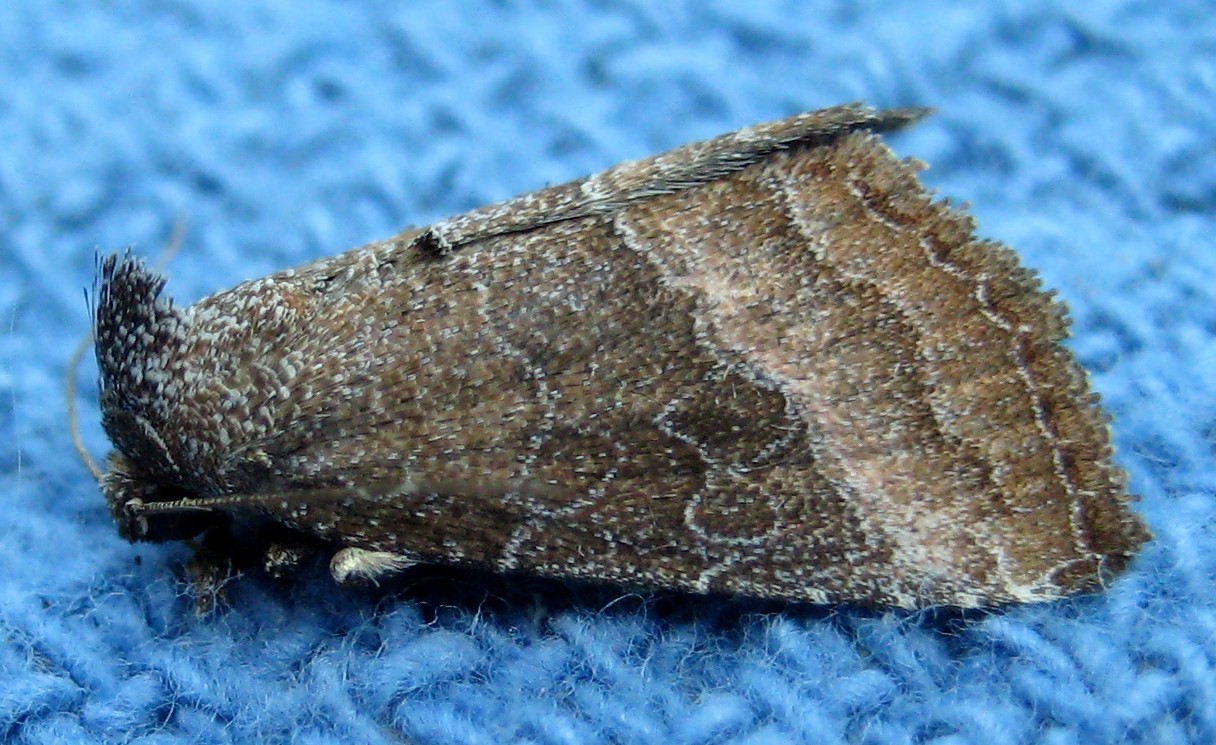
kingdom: Animalia
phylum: Arthropoda
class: Insecta
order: Lepidoptera
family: Noctuidae
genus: Ogdoconta
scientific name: Ogdoconta cinereola
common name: Common pinkband
